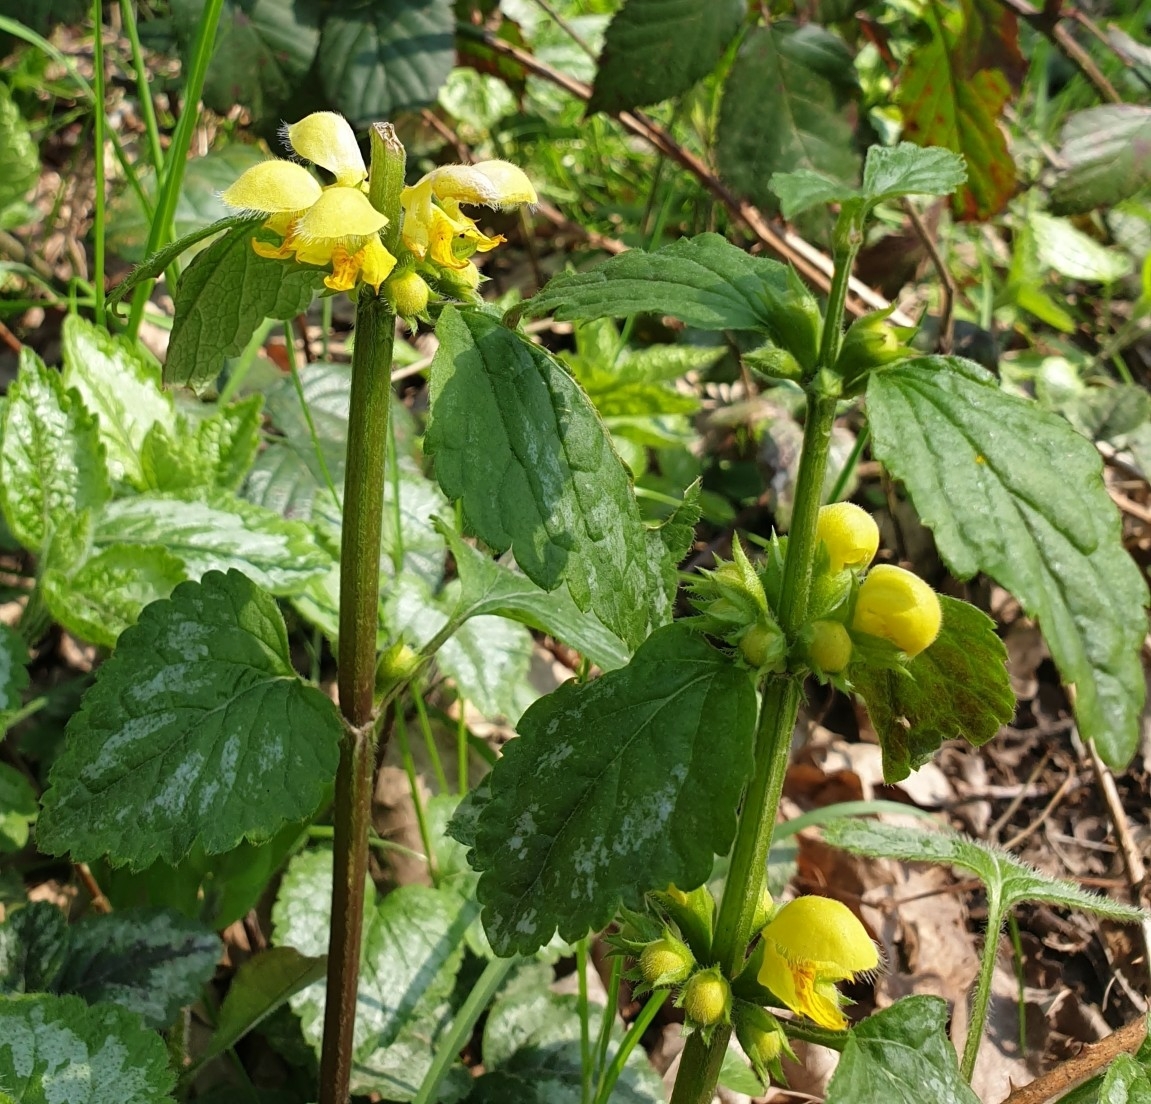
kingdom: Plantae
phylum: Tracheophyta
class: Magnoliopsida
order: Lamiales
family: Lamiaceae
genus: Lamium
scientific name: Lamium galeobdolon
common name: Yellow archangel
